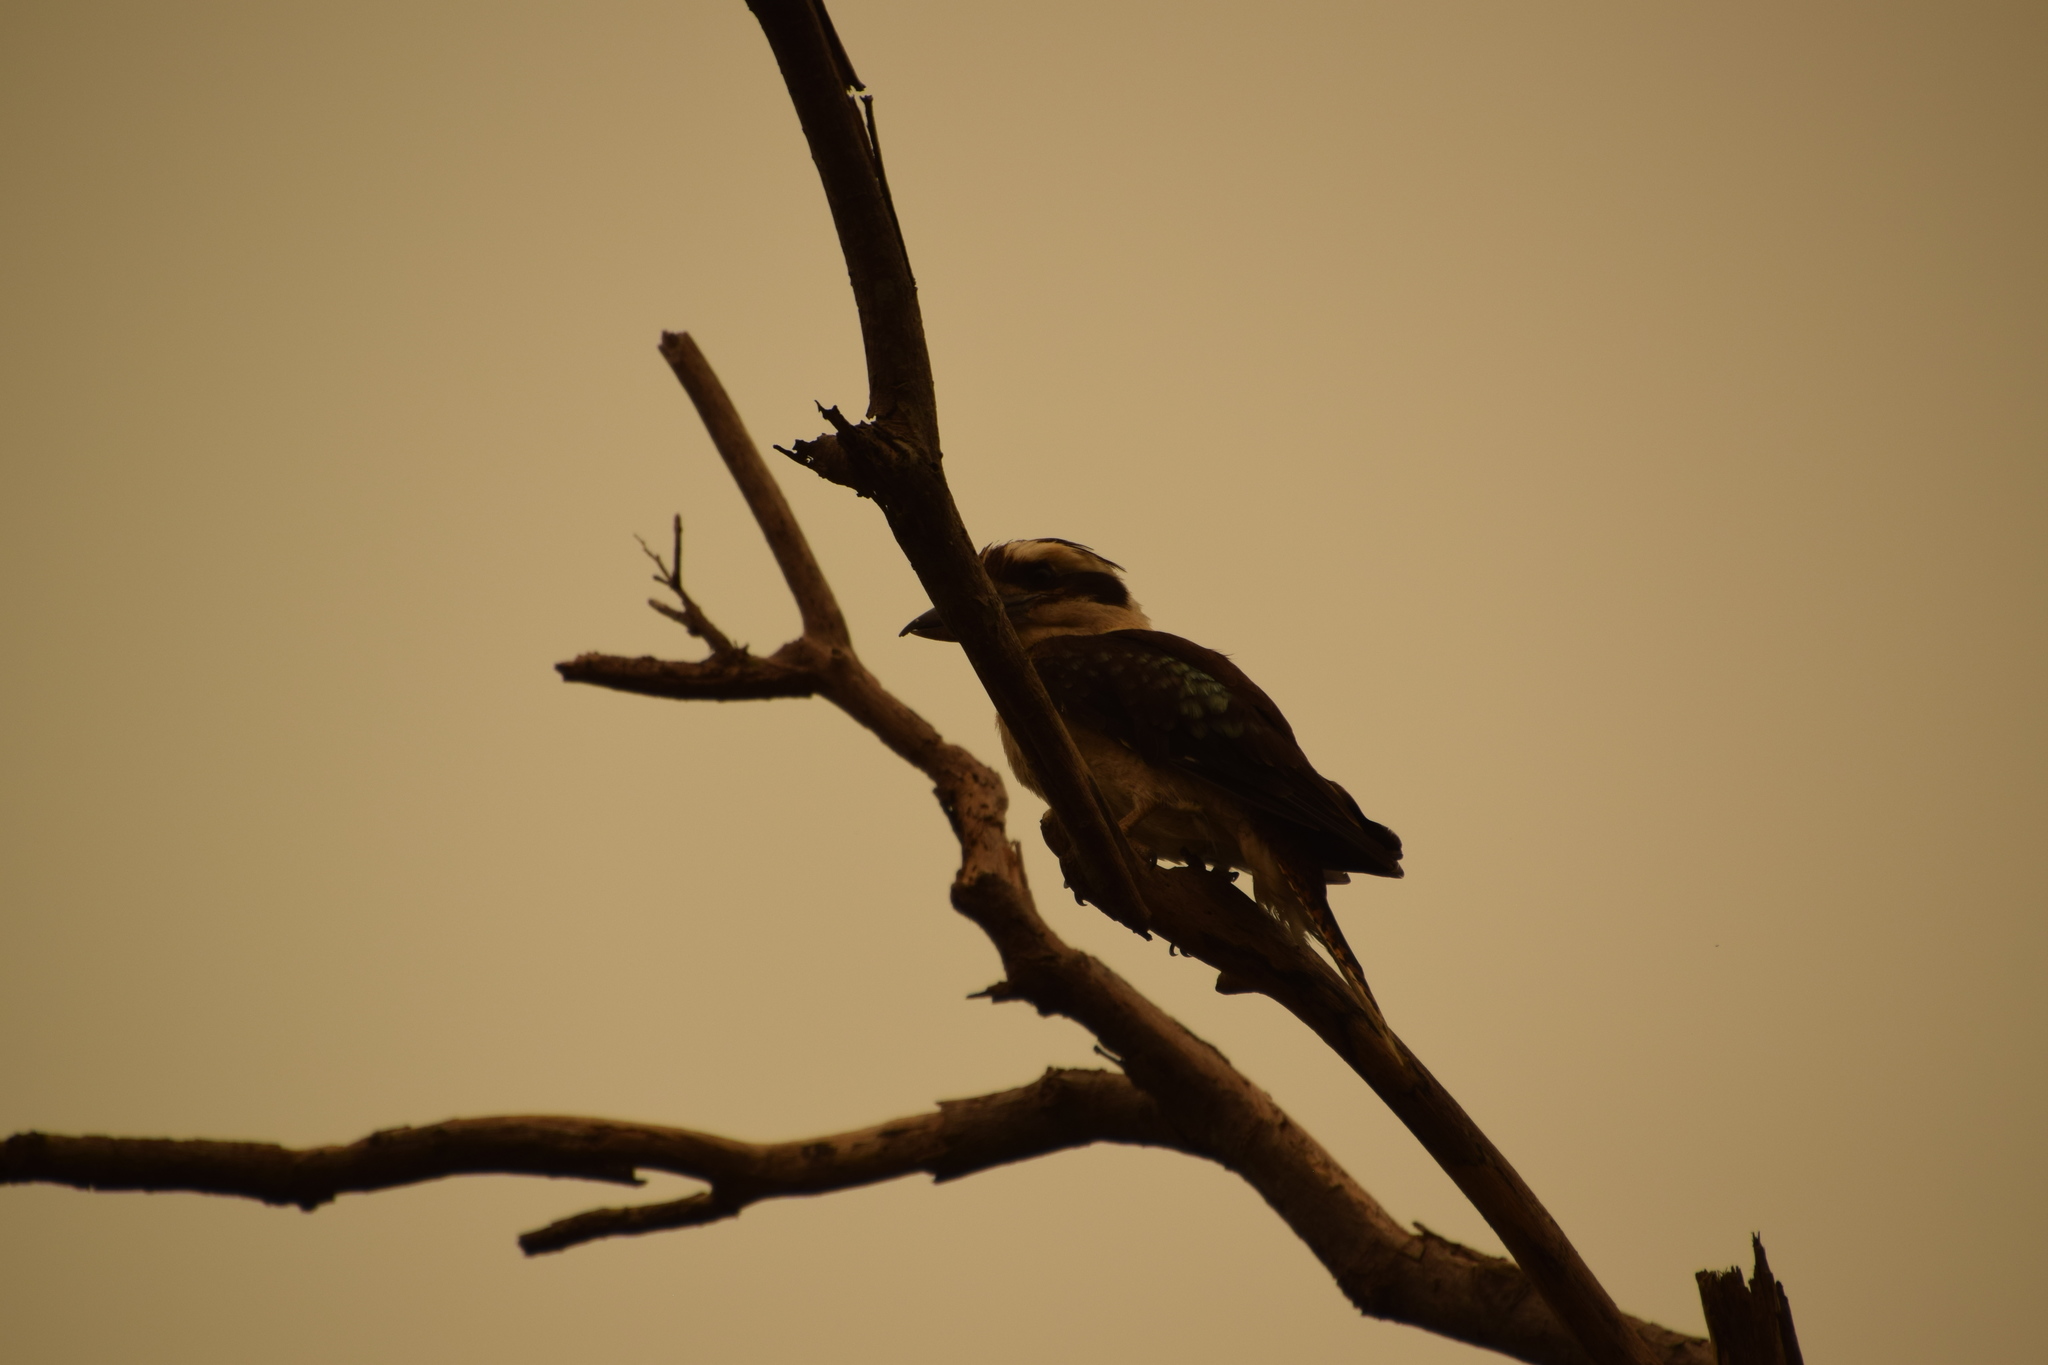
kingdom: Animalia
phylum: Chordata
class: Aves
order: Coraciiformes
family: Alcedinidae
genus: Dacelo
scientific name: Dacelo novaeguineae
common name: Laughing kookaburra
